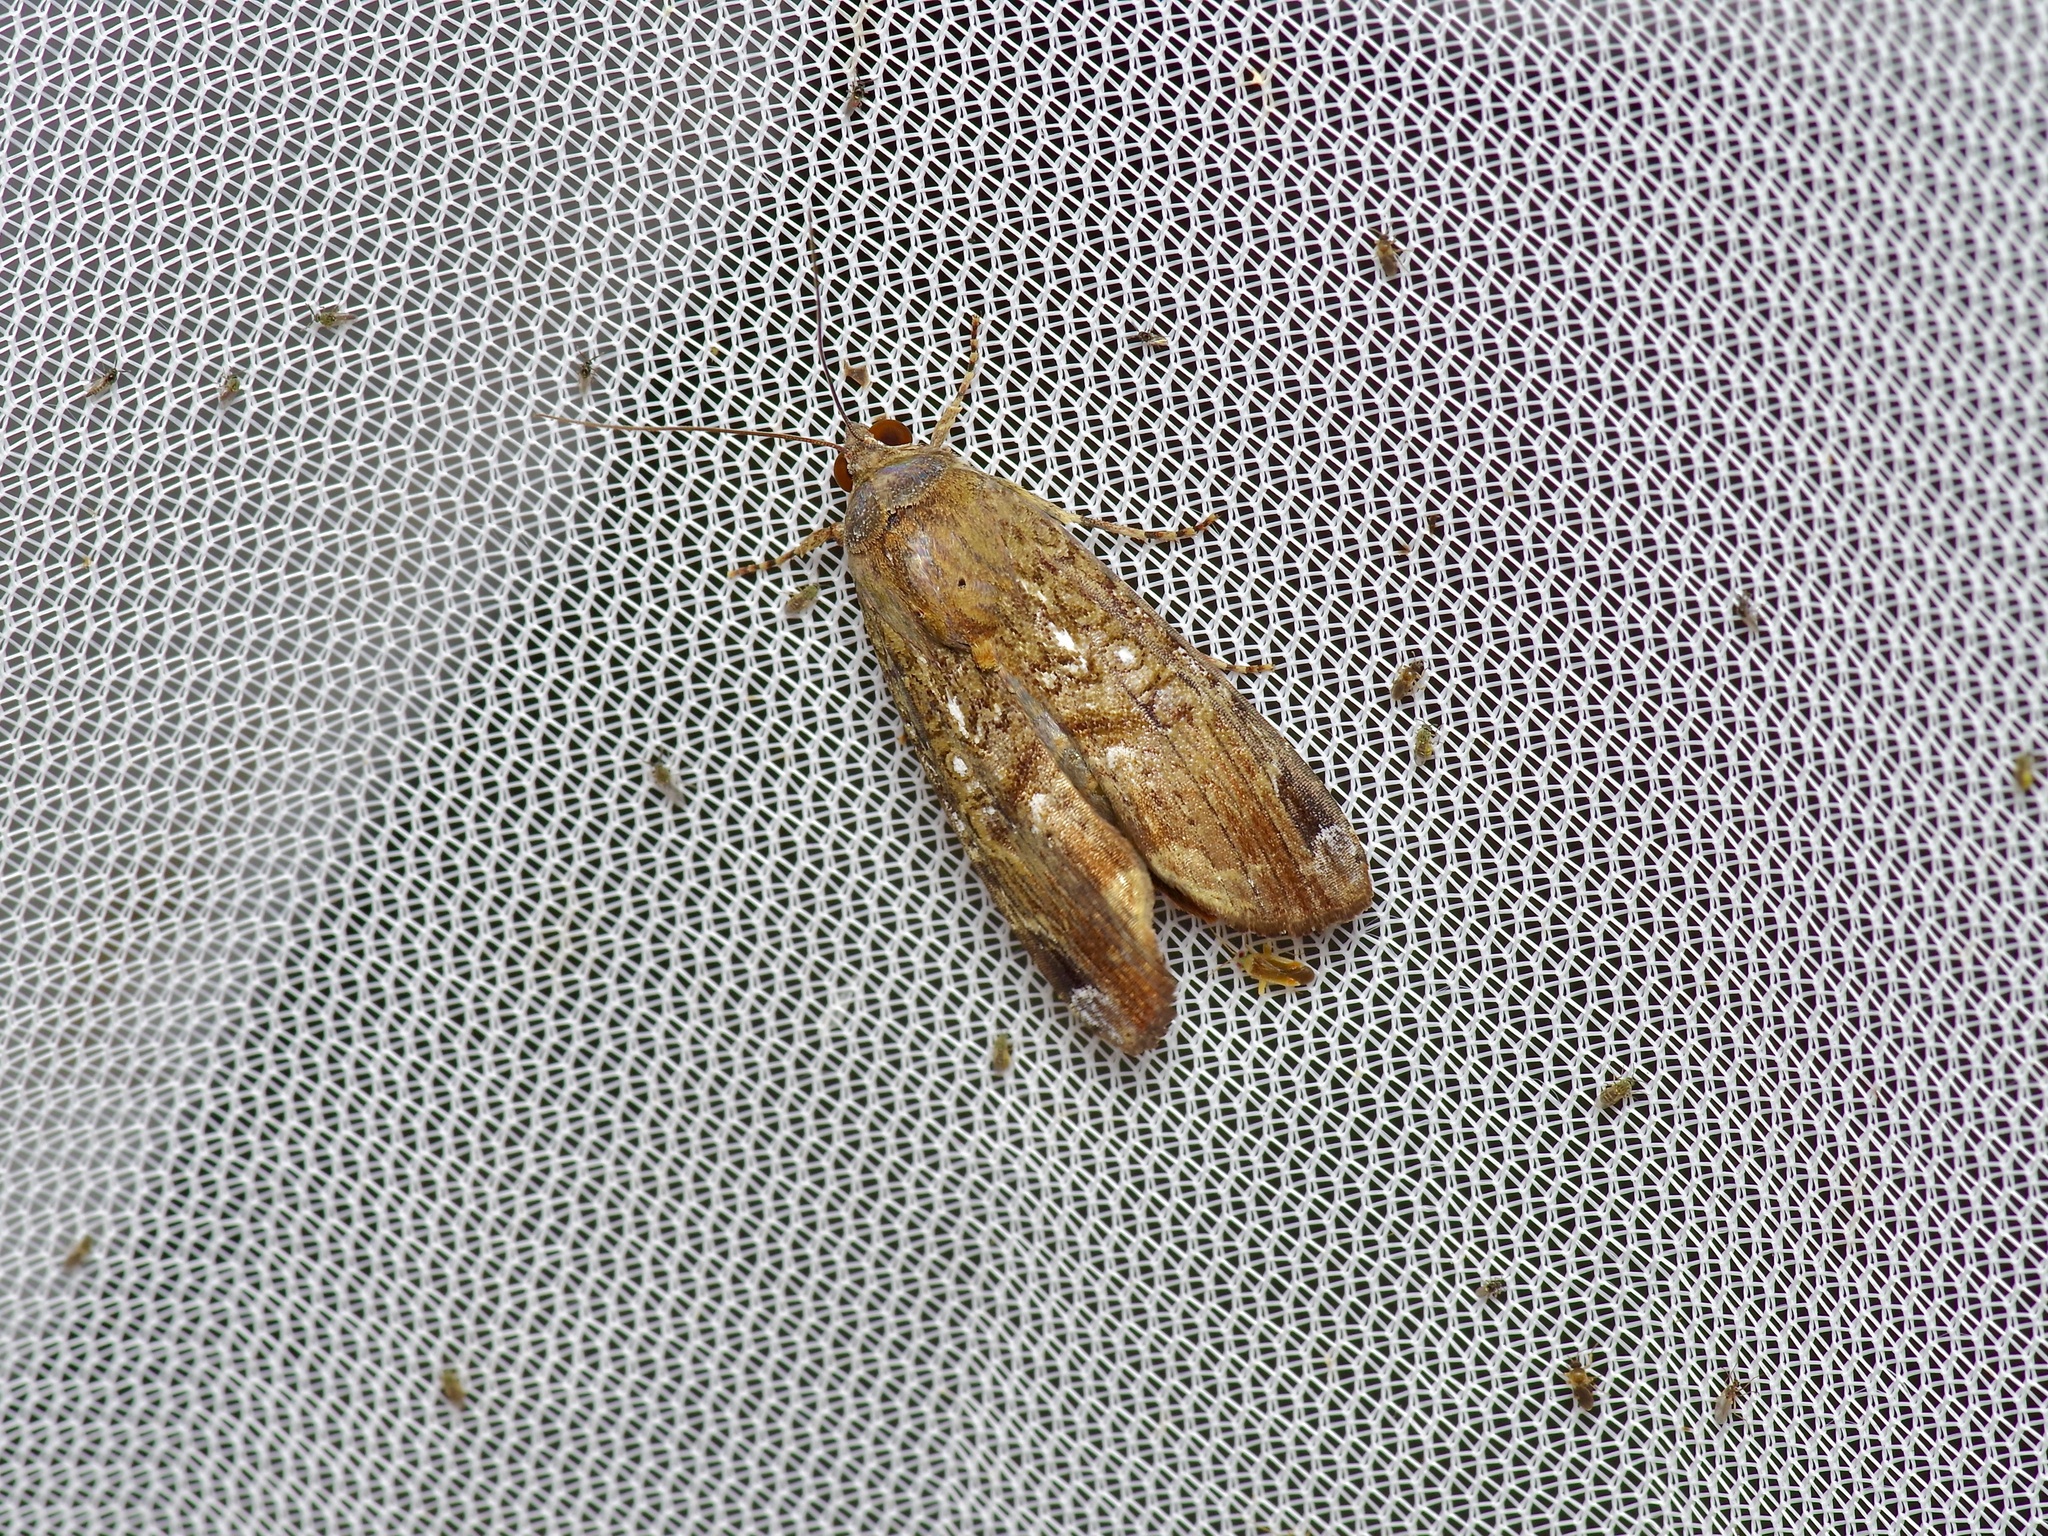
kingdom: Animalia
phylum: Arthropoda
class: Insecta
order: Lepidoptera
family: Noctuidae
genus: Magusa
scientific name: Magusa divaricata
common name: Orb narrow-winged moth
